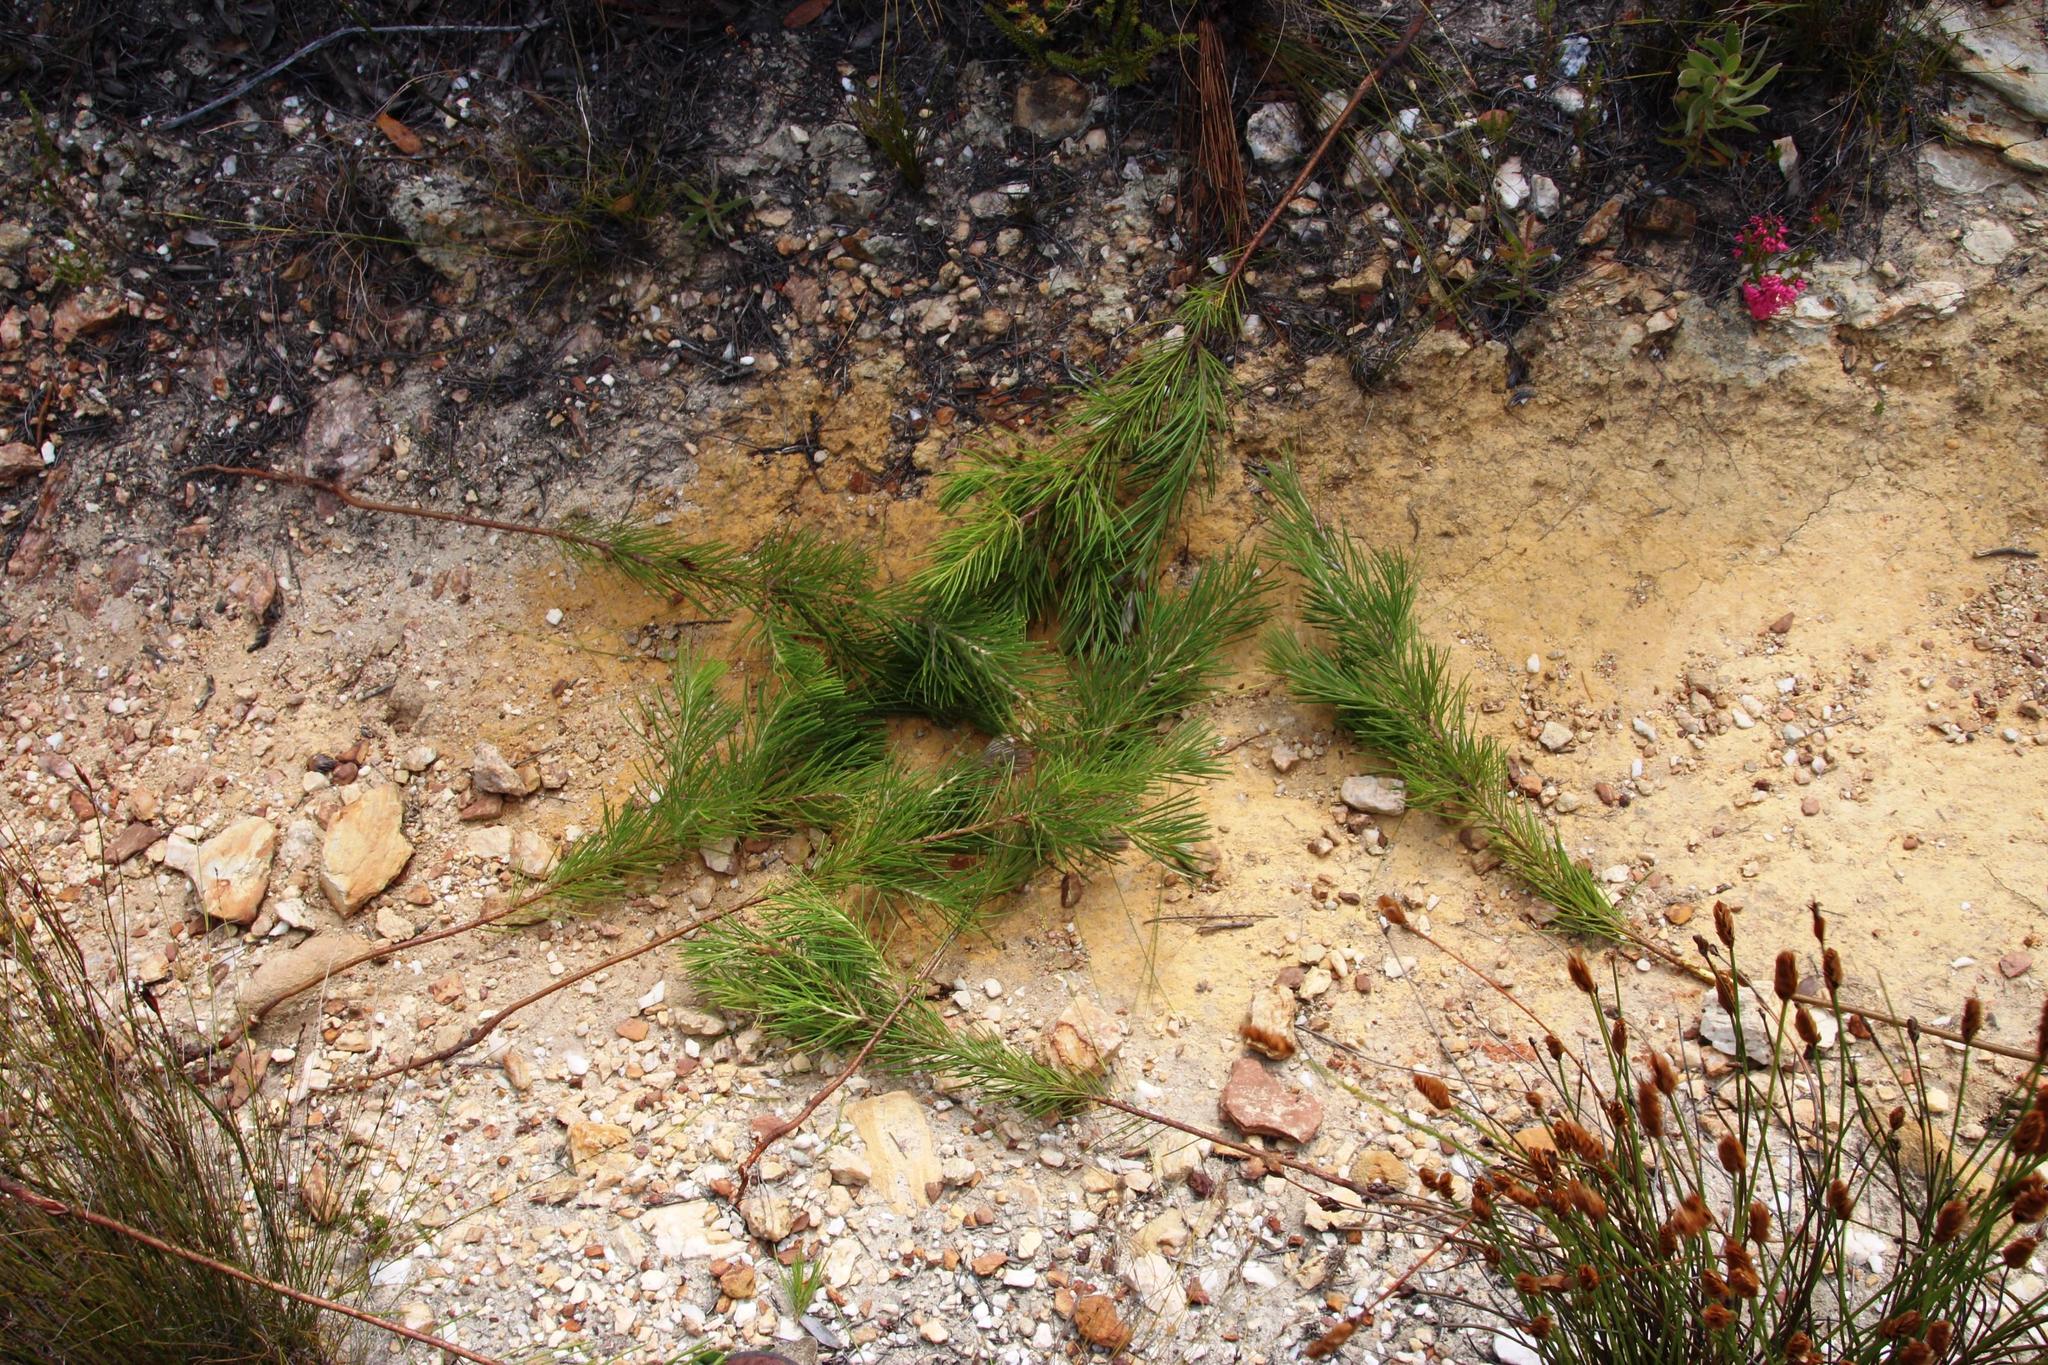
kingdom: Plantae
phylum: Tracheophyta
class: Magnoliopsida
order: Proteales
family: Proteaceae
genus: Hakea
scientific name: Hakea gibbosa
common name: Rock hakea
